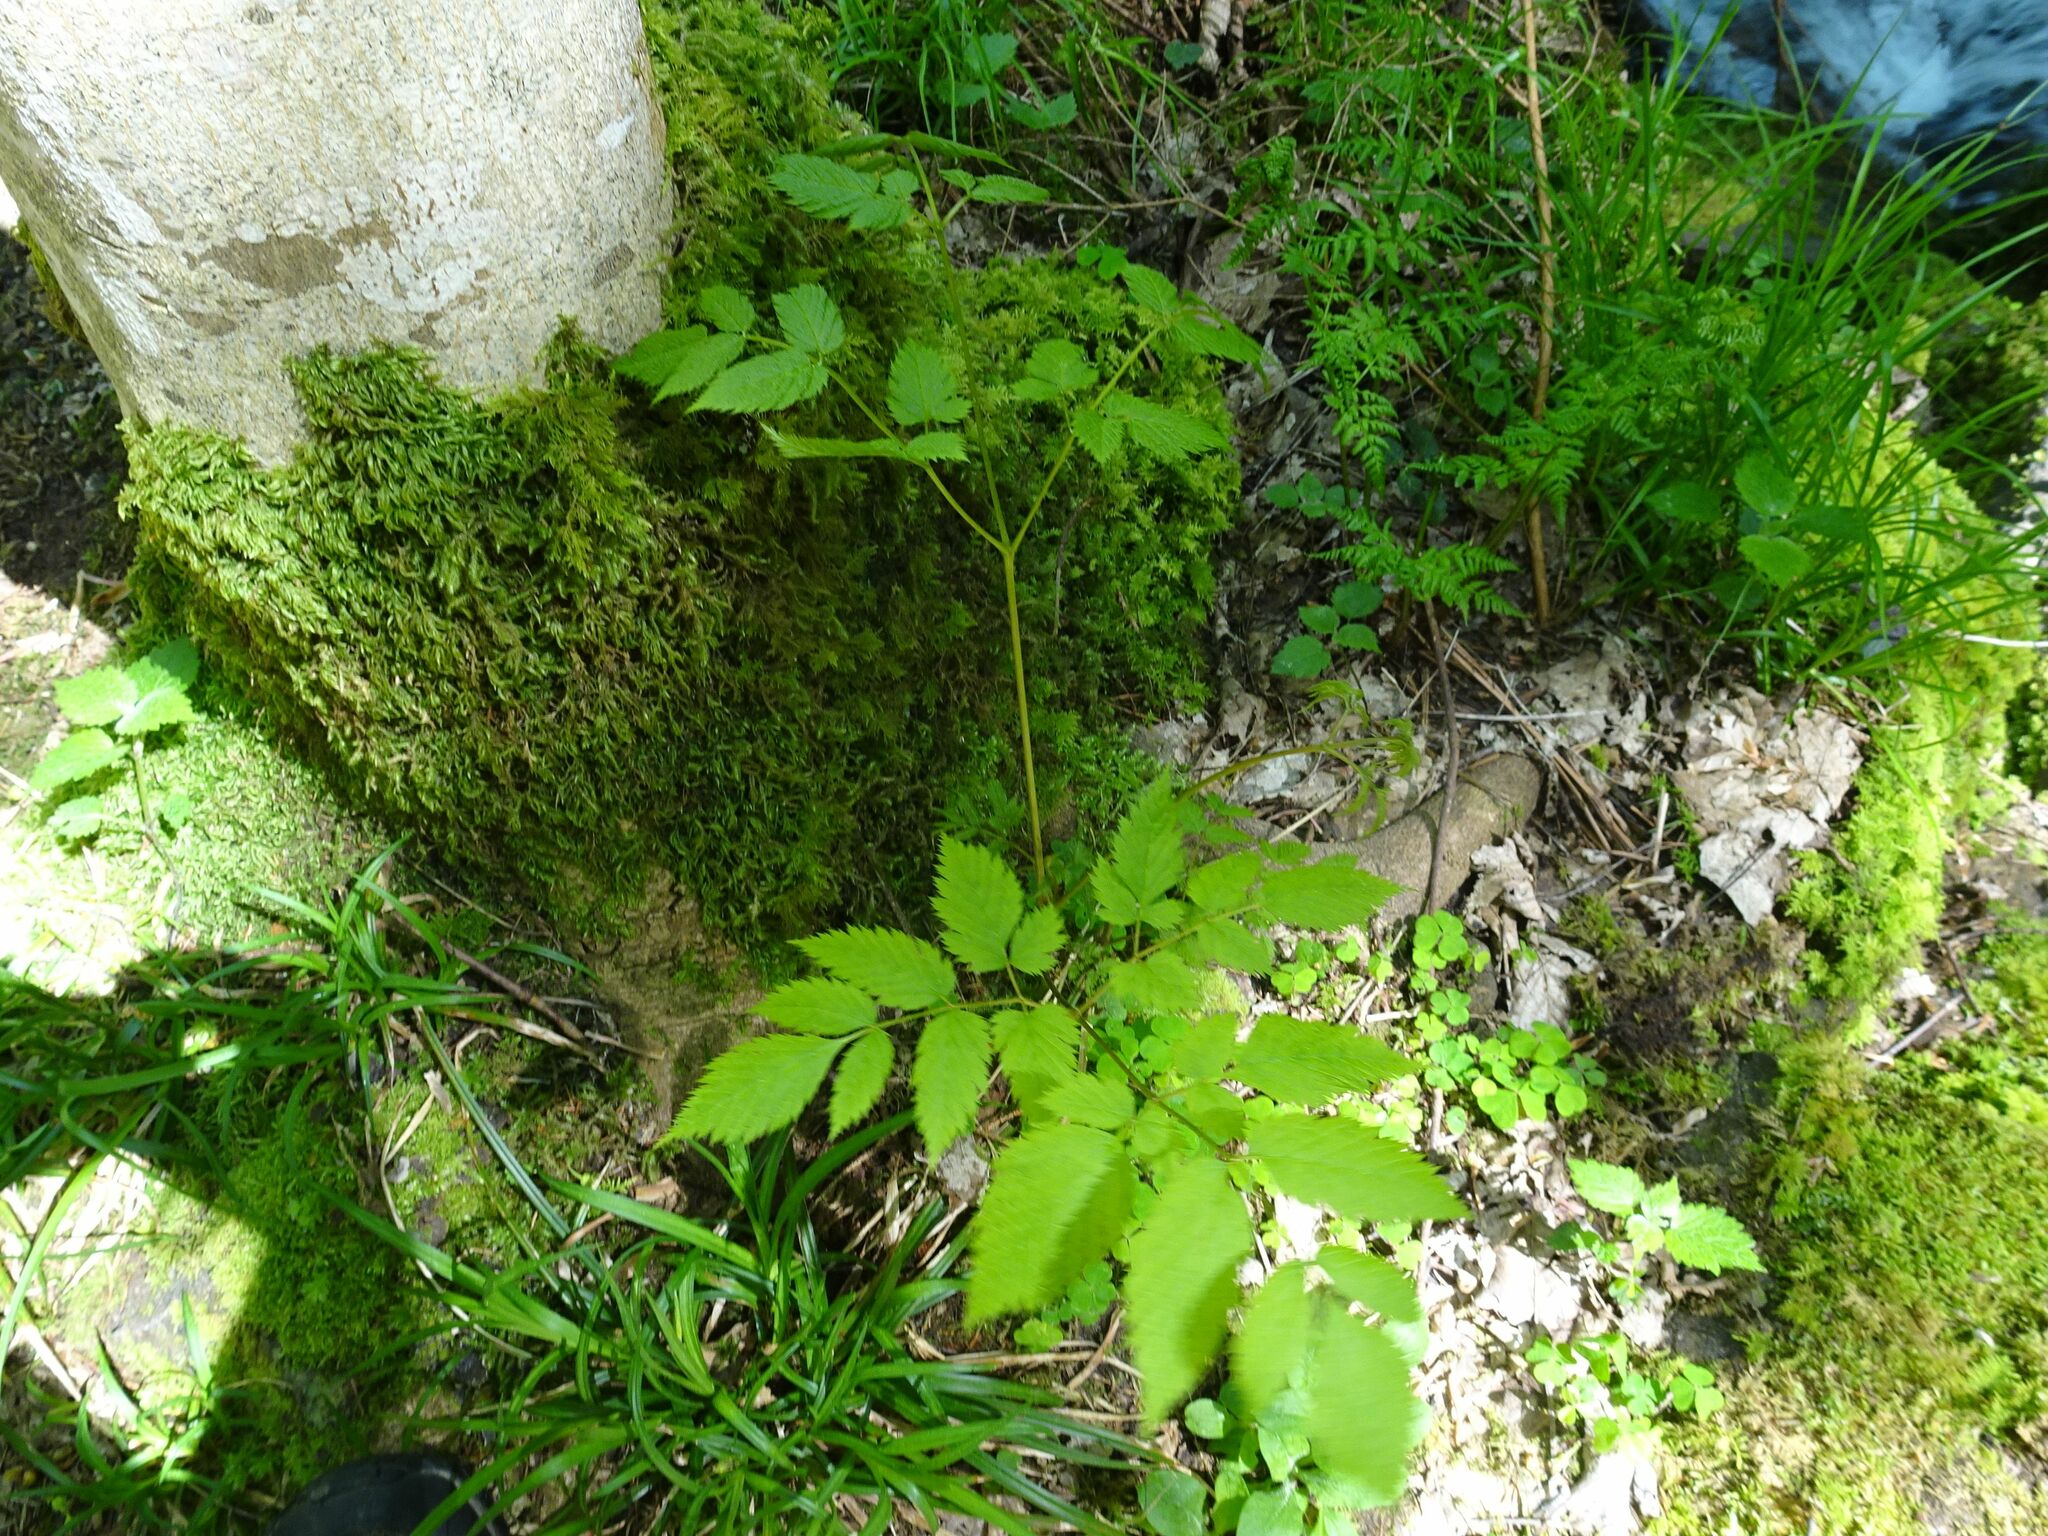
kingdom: Plantae
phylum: Tracheophyta
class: Magnoliopsida
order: Rosales
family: Rosaceae
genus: Aruncus
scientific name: Aruncus dioicus
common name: Buck's-beard
